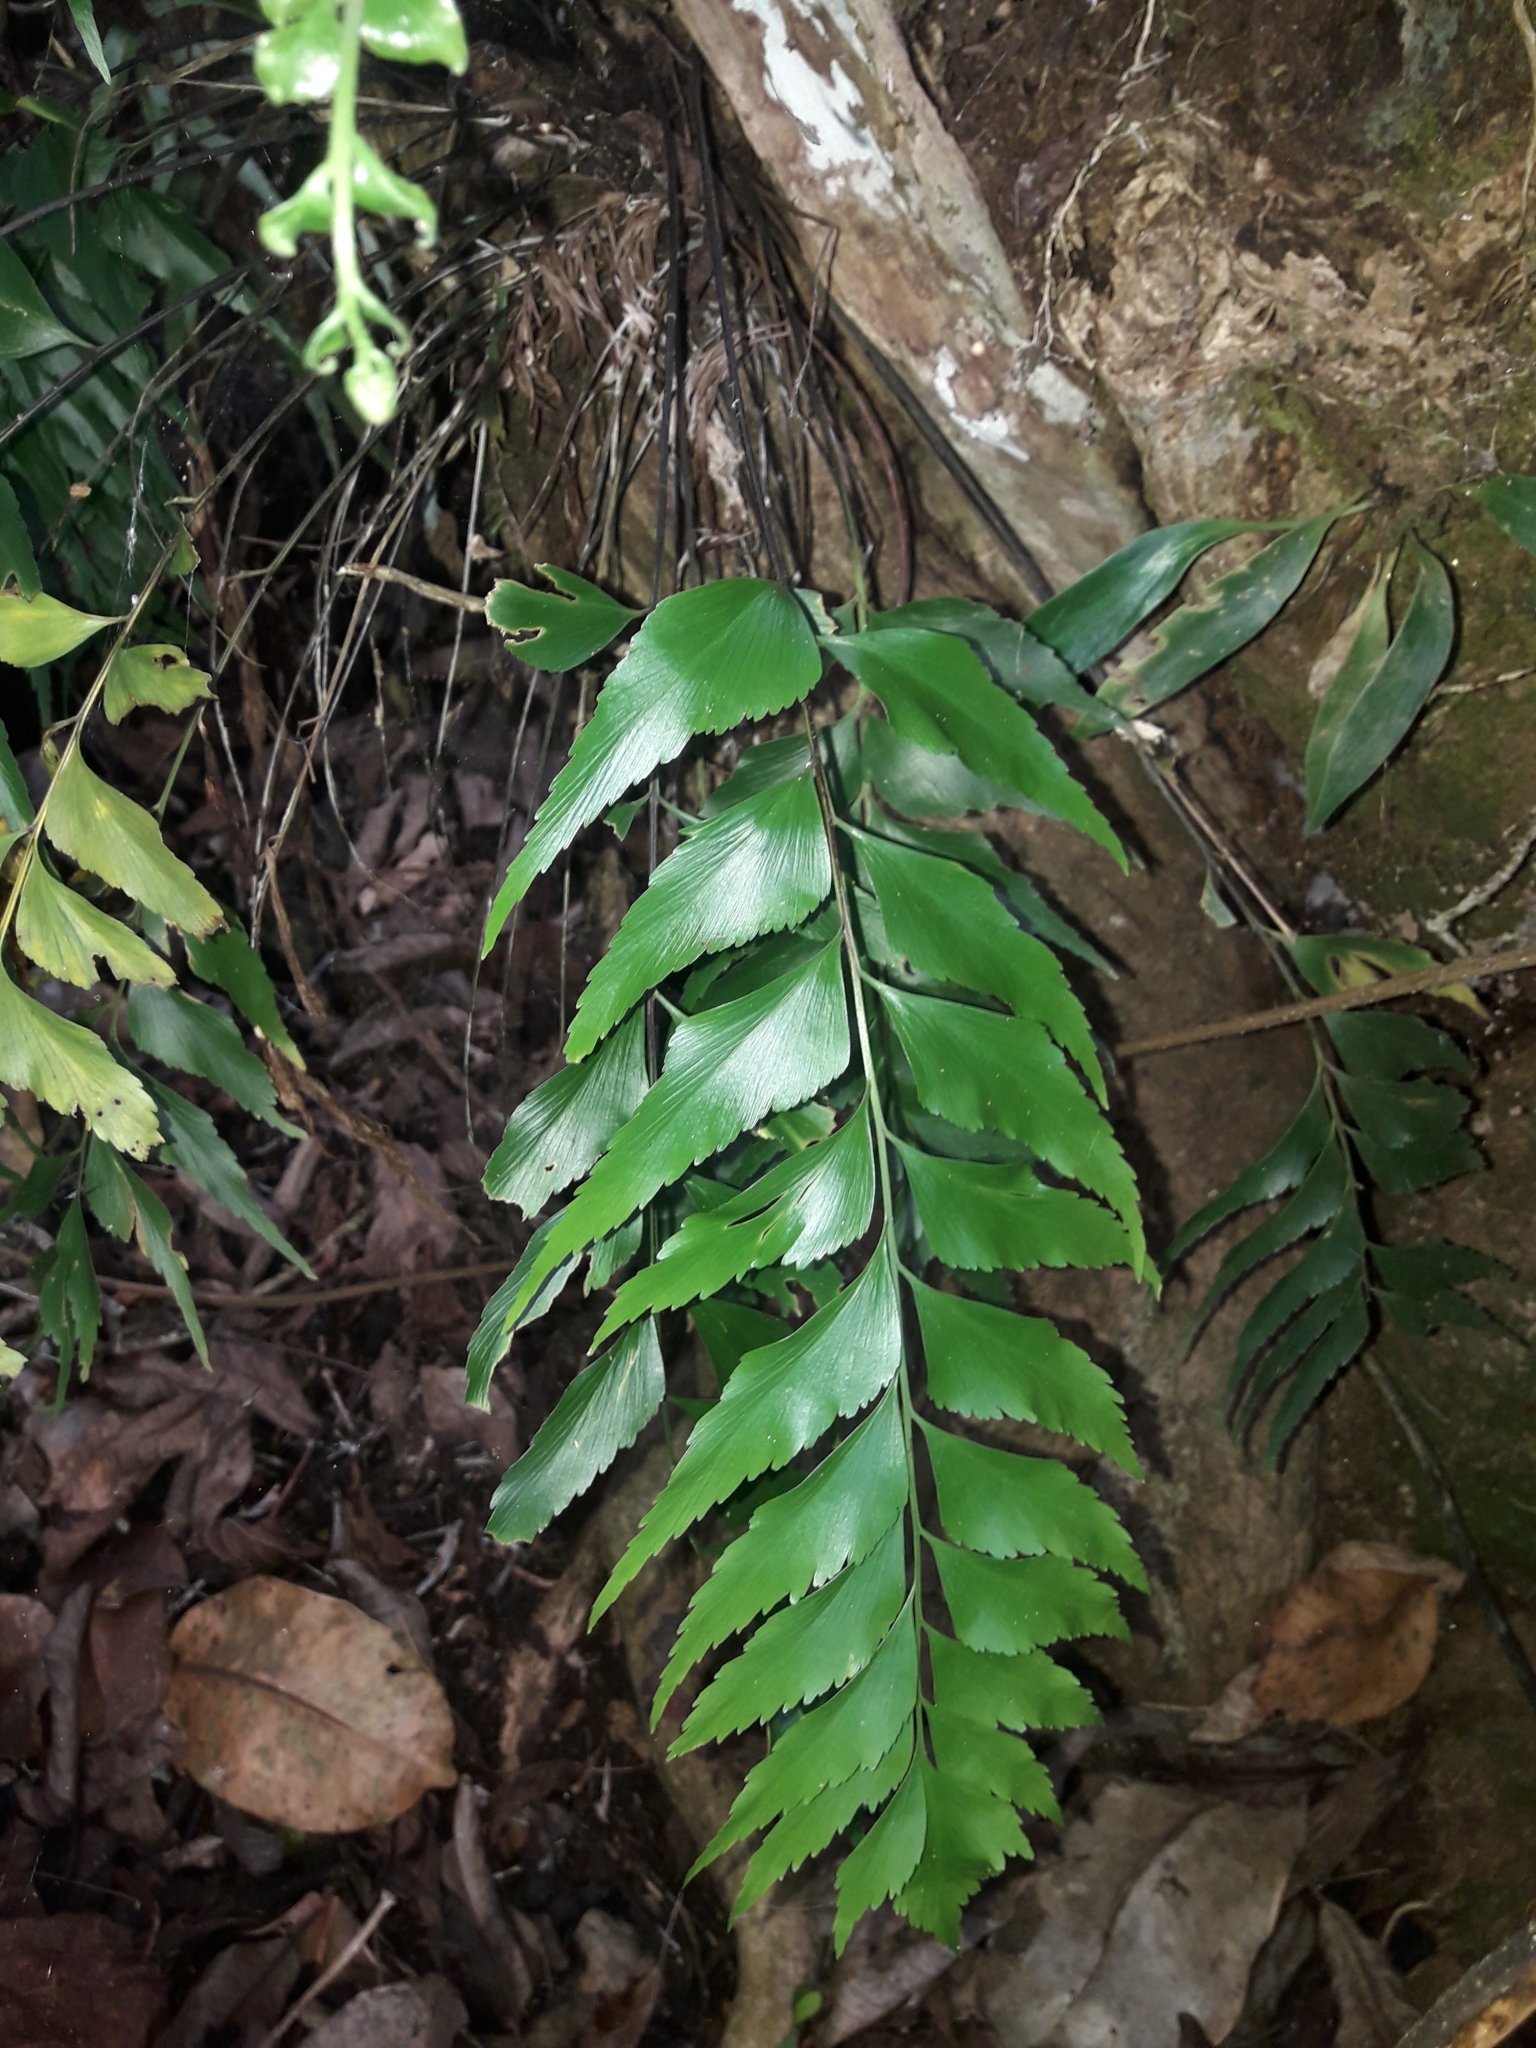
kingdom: Plantae
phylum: Tracheophyta
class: Polypodiopsida
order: Polypodiales
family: Aspleniaceae
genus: Asplenium
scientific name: Asplenium falcatum
